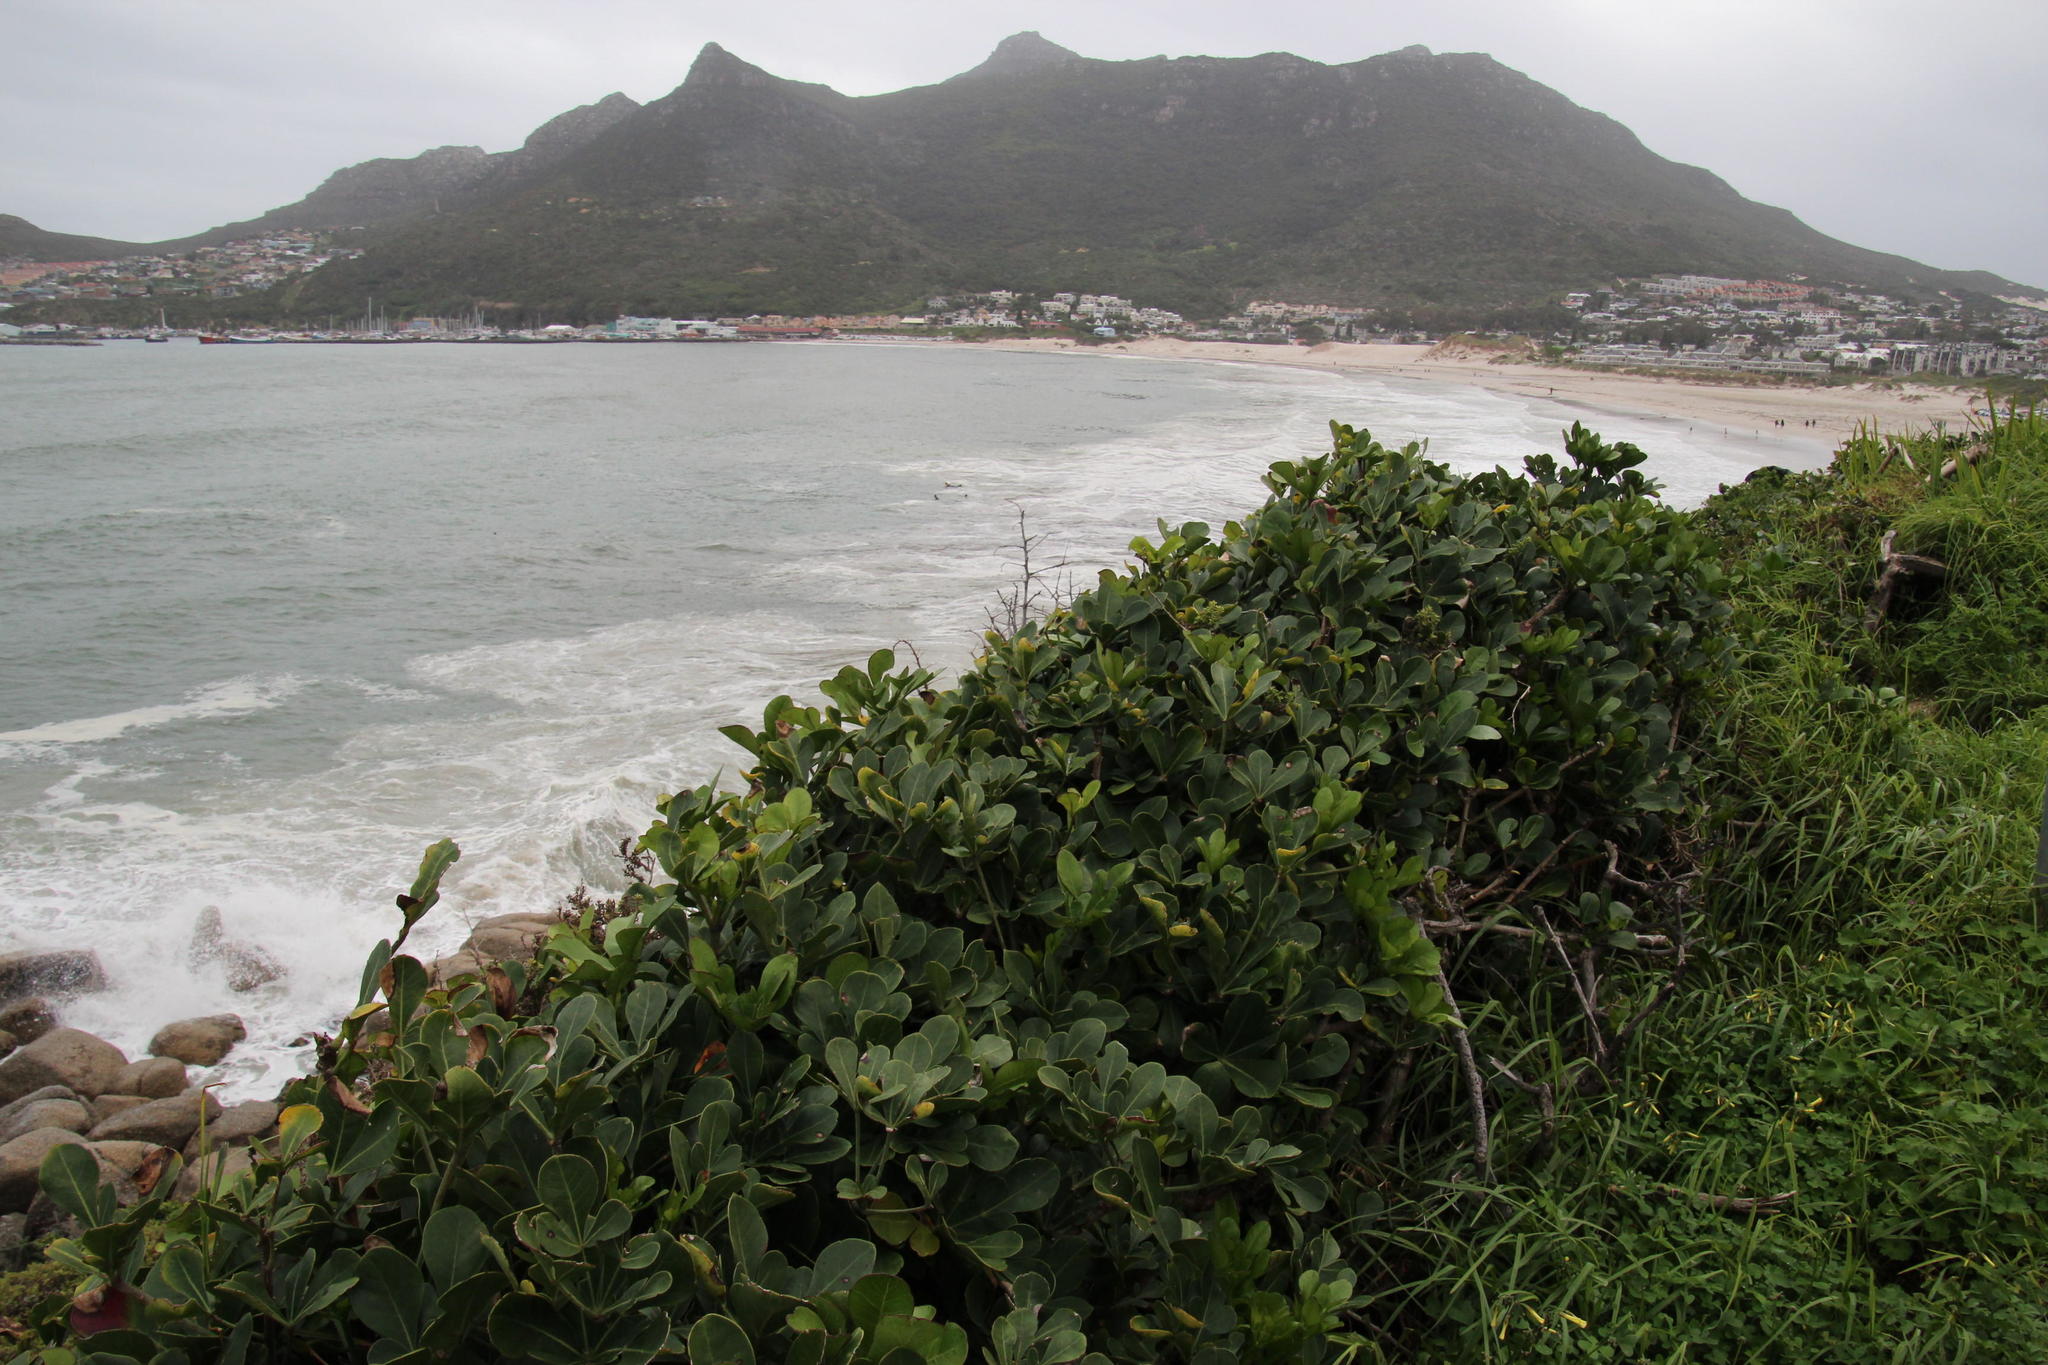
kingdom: Plantae
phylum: Tracheophyta
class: Magnoliopsida
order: Apiales
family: Araliaceae
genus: Cussonia
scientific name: Cussonia thyrsiflora
